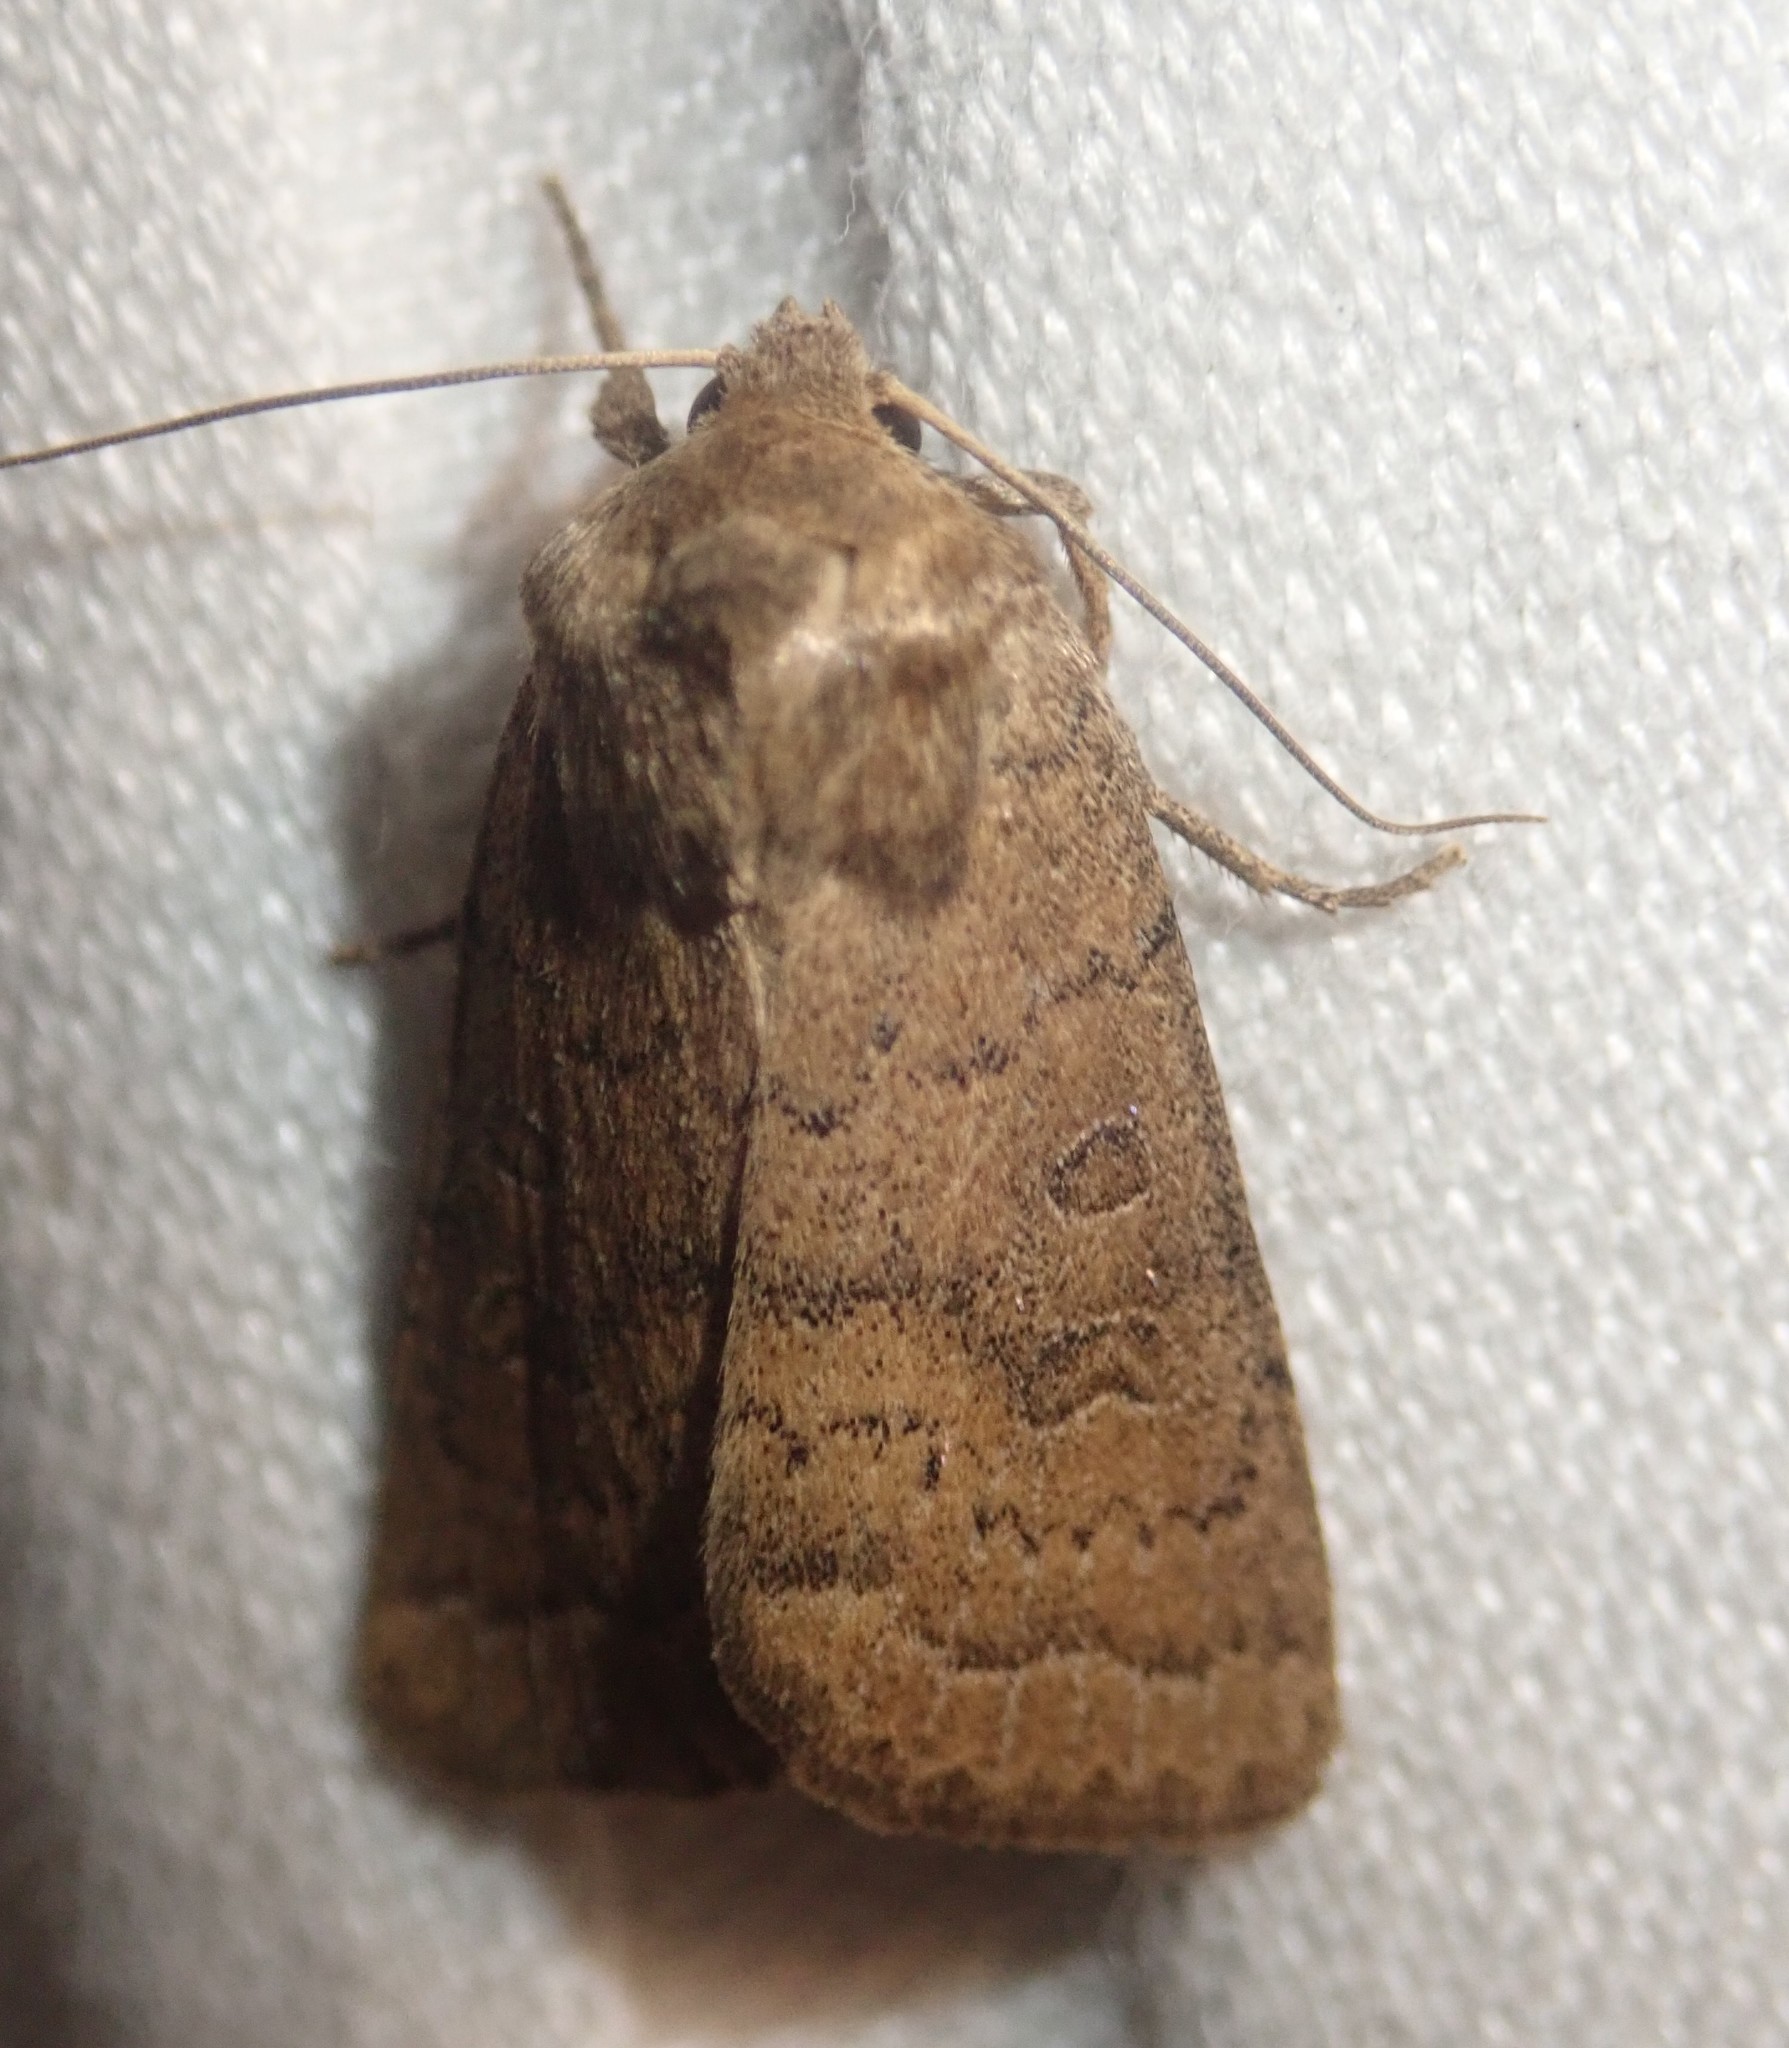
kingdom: Animalia
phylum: Arthropoda
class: Insecta
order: Lepidoptera
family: Noctuidae
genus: Hoplodrina
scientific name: Hoplodrina octogenaria
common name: Uncertain
